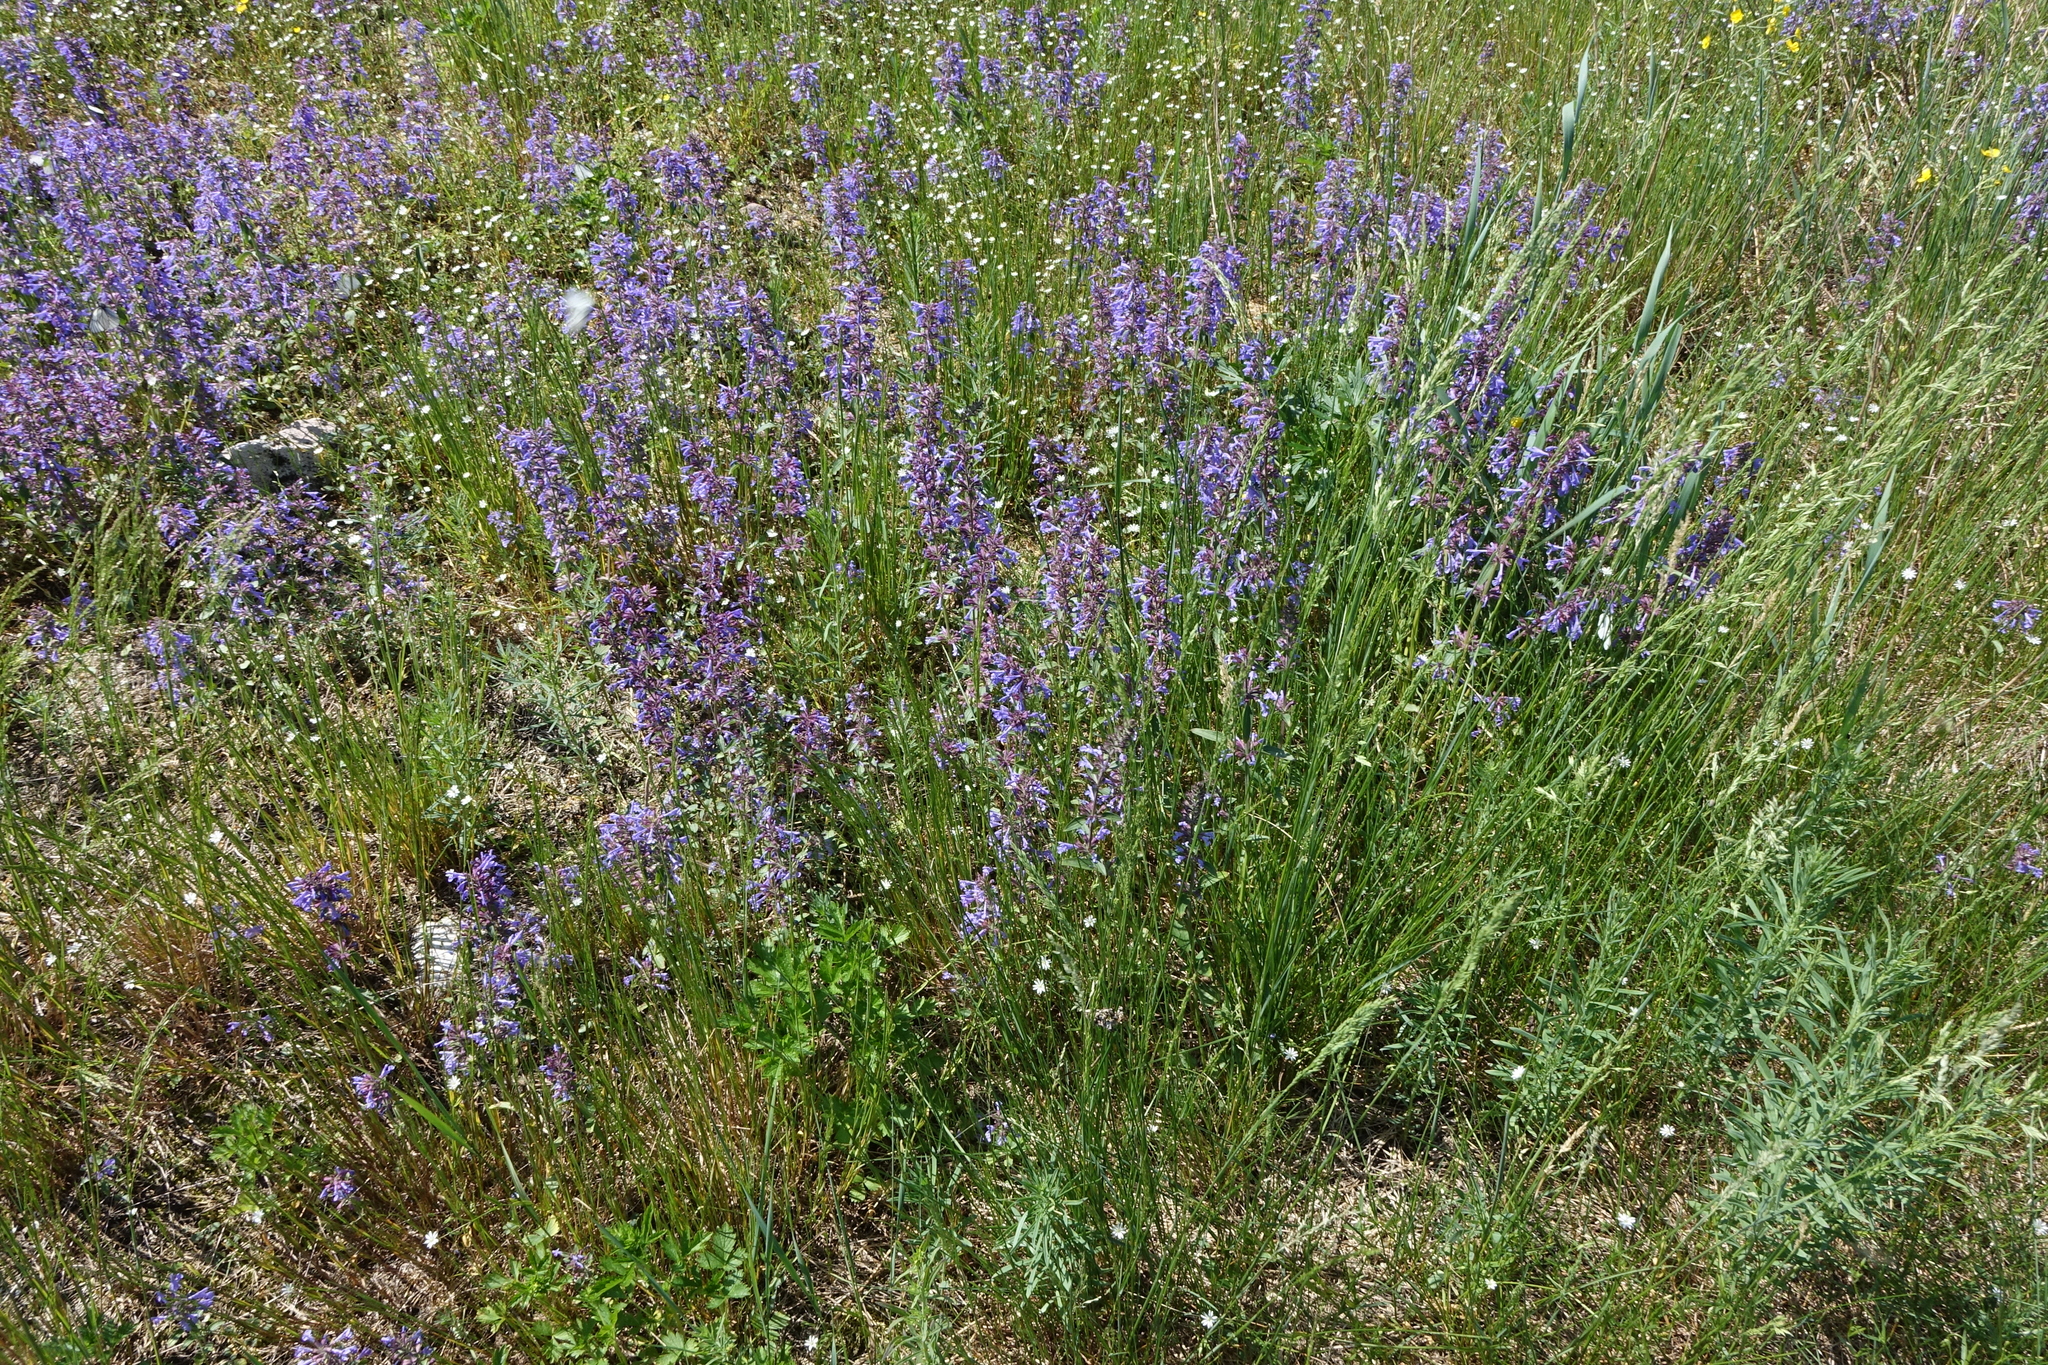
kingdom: Plantae
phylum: Tracheophyta
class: Magnoliopsida
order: Lamiales
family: Lamiaceae
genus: Dracocephalum
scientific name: Dracocephalum nutans
